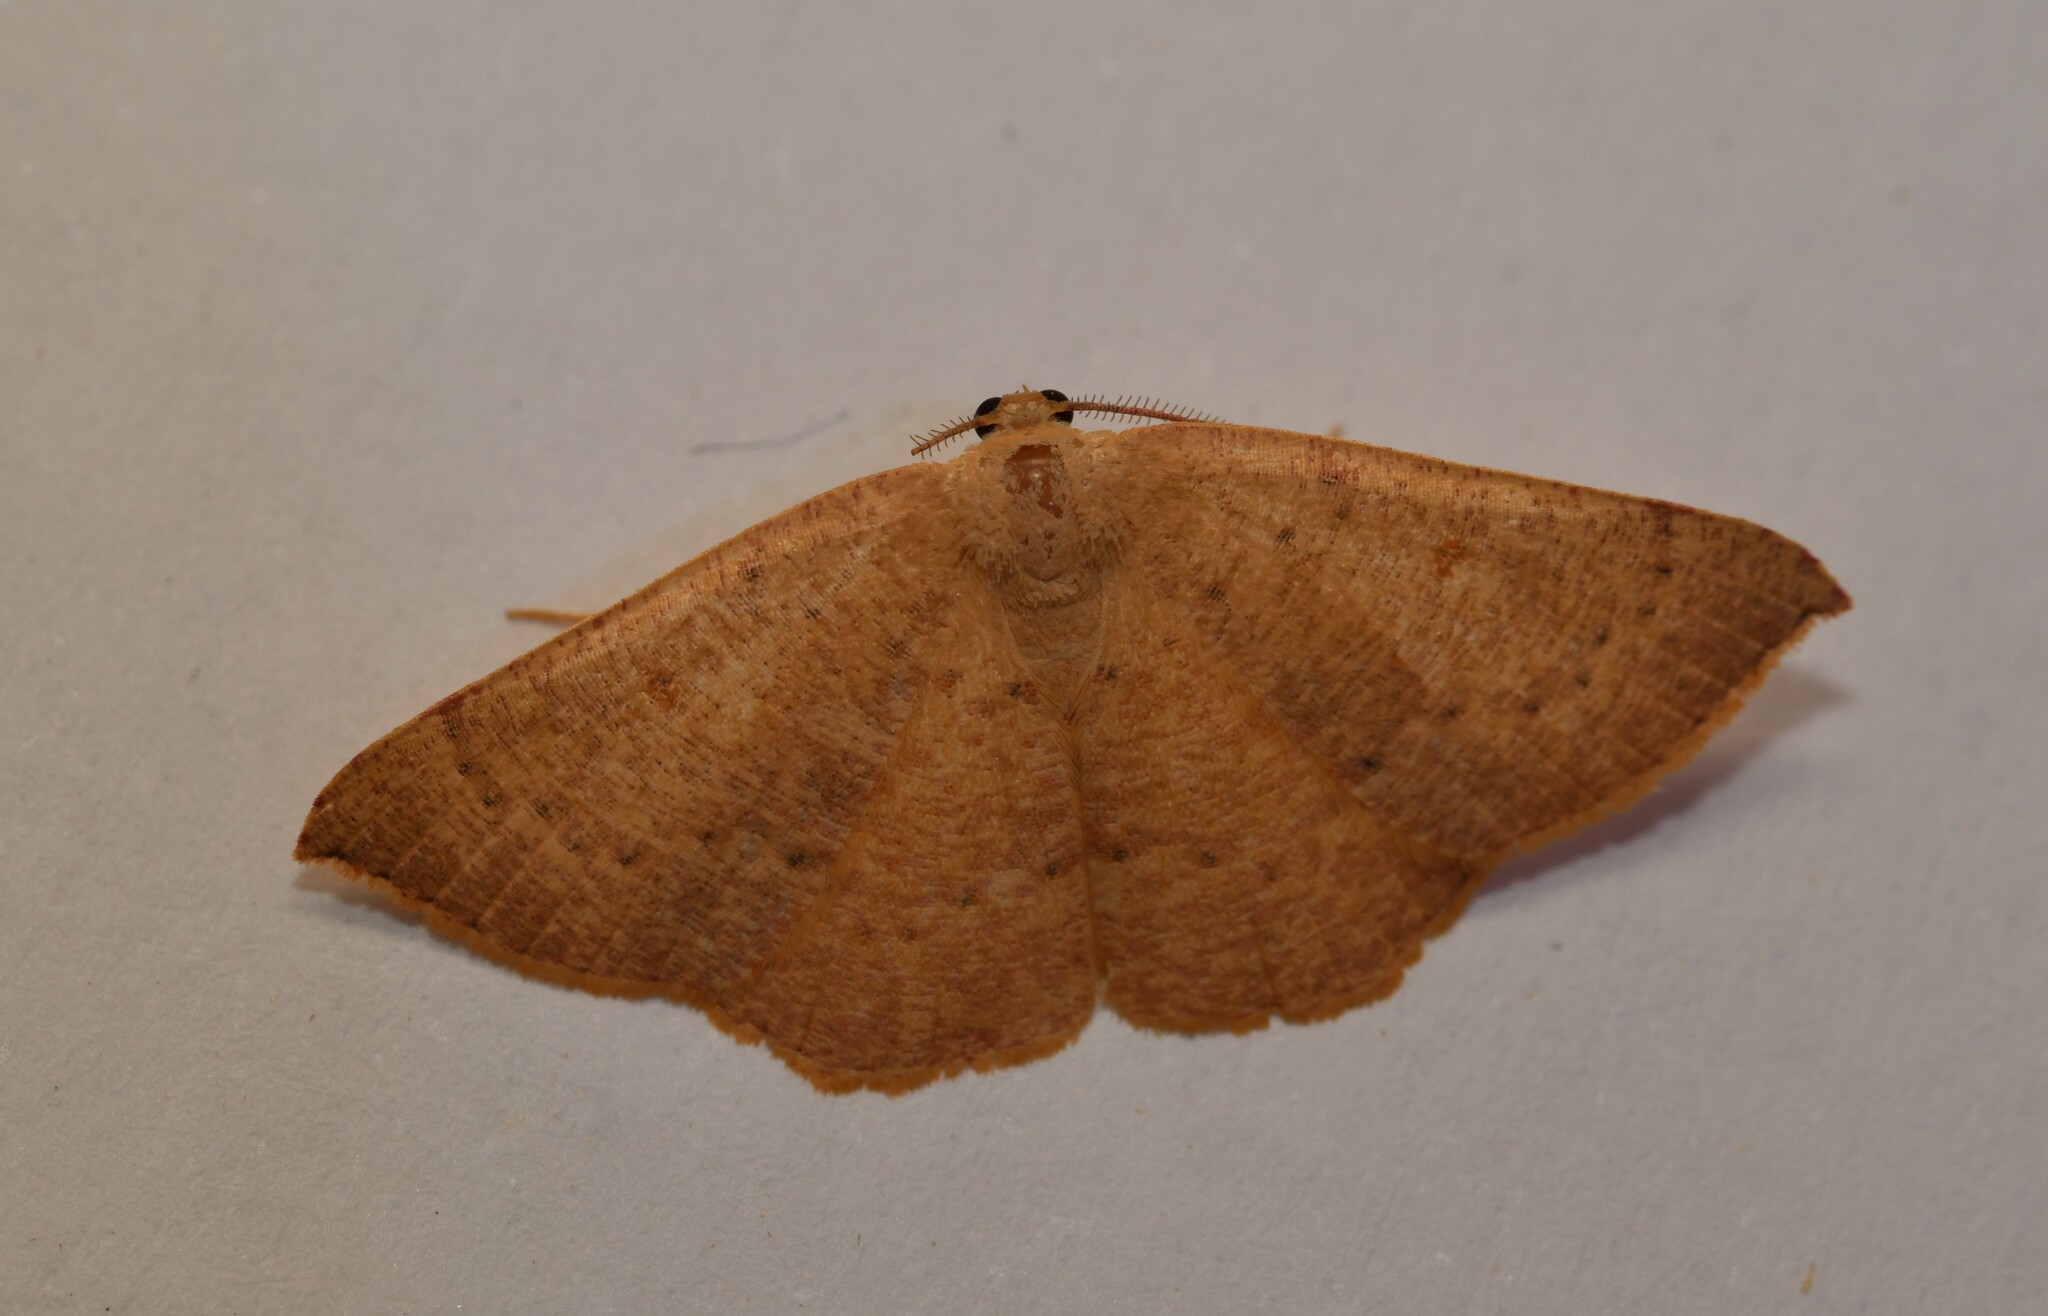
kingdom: Animalia
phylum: Arthropoda
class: Insecta
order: Lepidoptera
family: Geometridae
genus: Cyclophora
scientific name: Cyclophora puppillaria
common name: Blair's mocha
